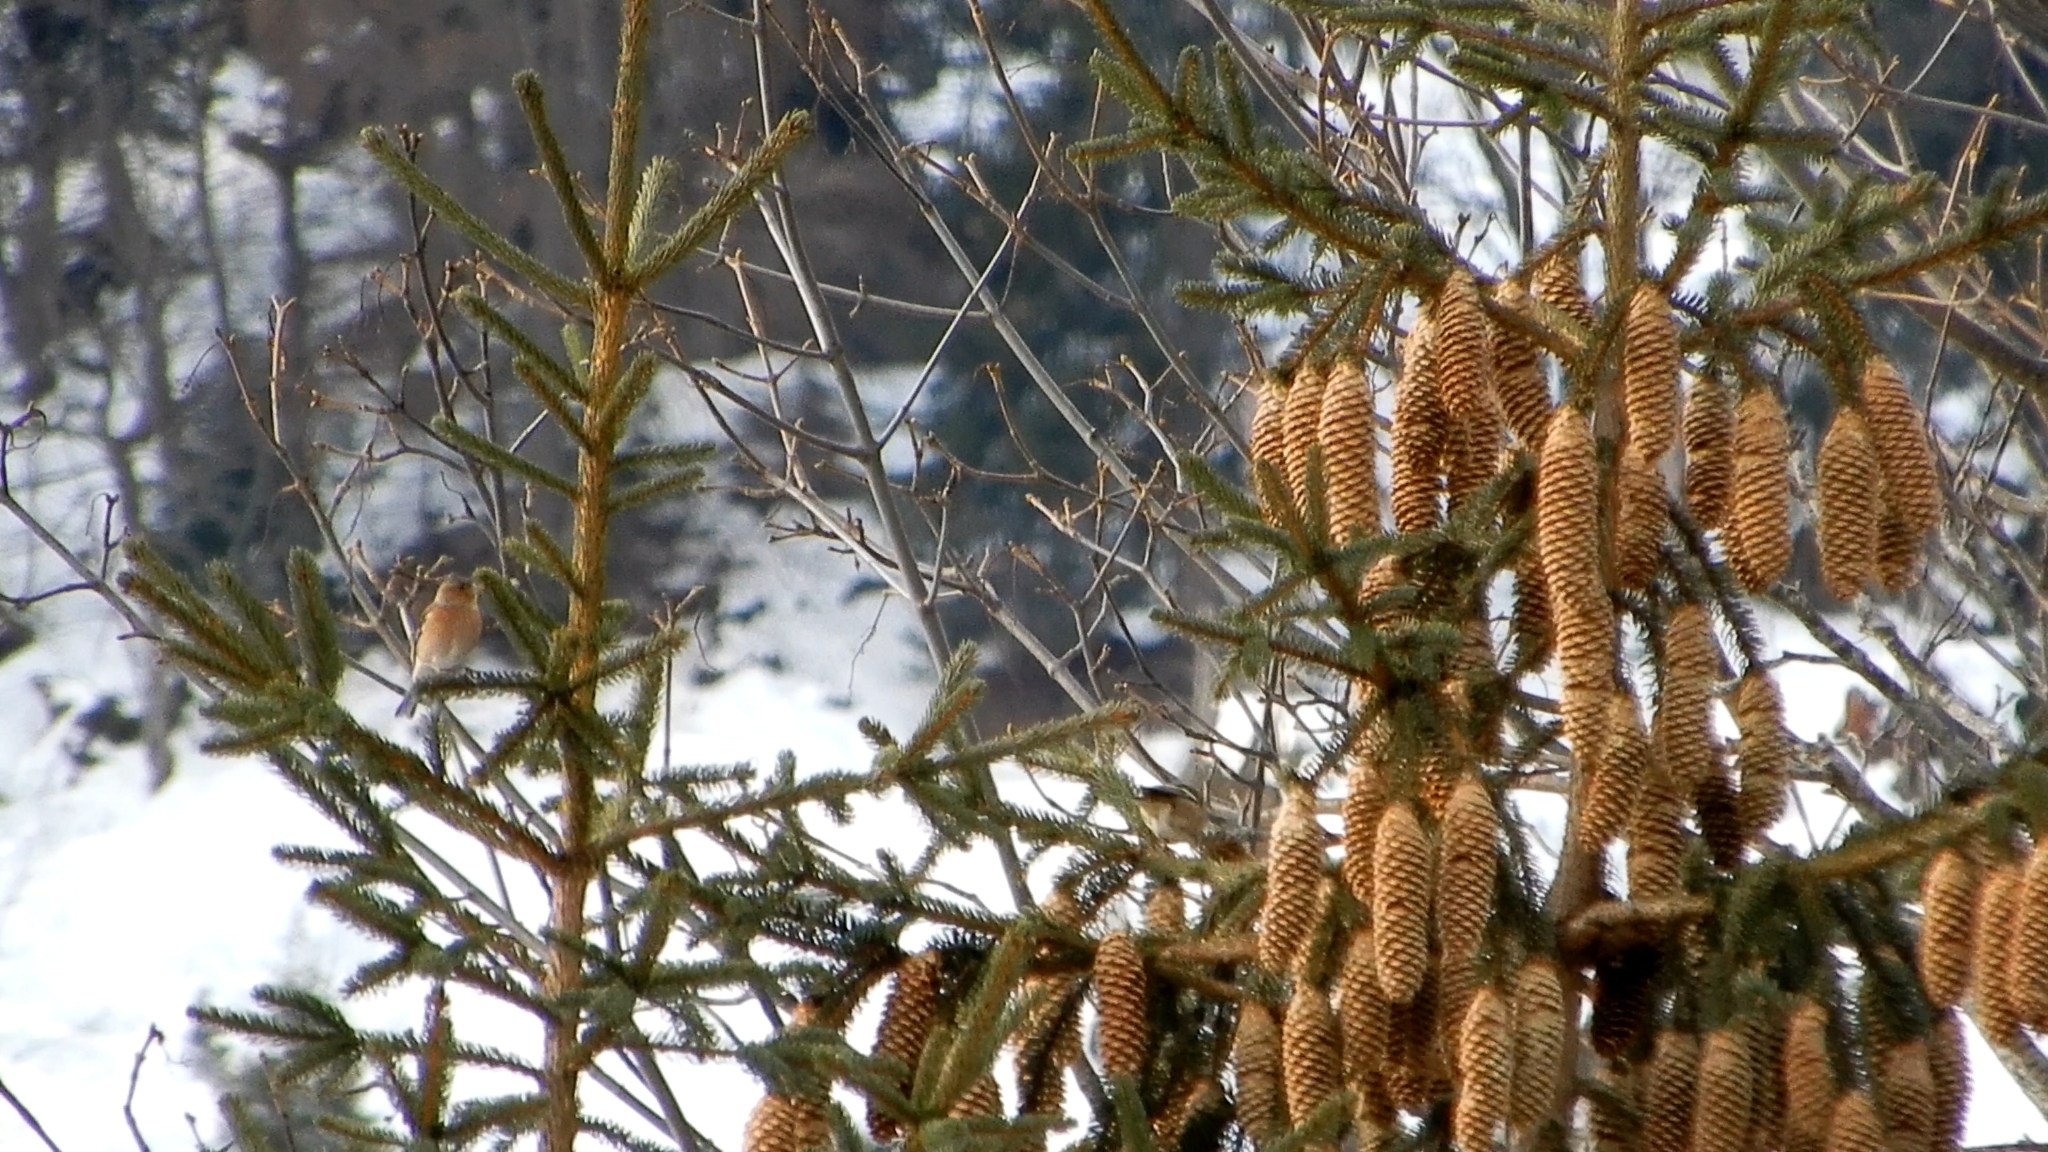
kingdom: Animalia
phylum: Chordata
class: Aves
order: Passeriformes
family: Fringillidae
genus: Fringilla
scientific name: Fringilla coelebs
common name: Common chaffinch
